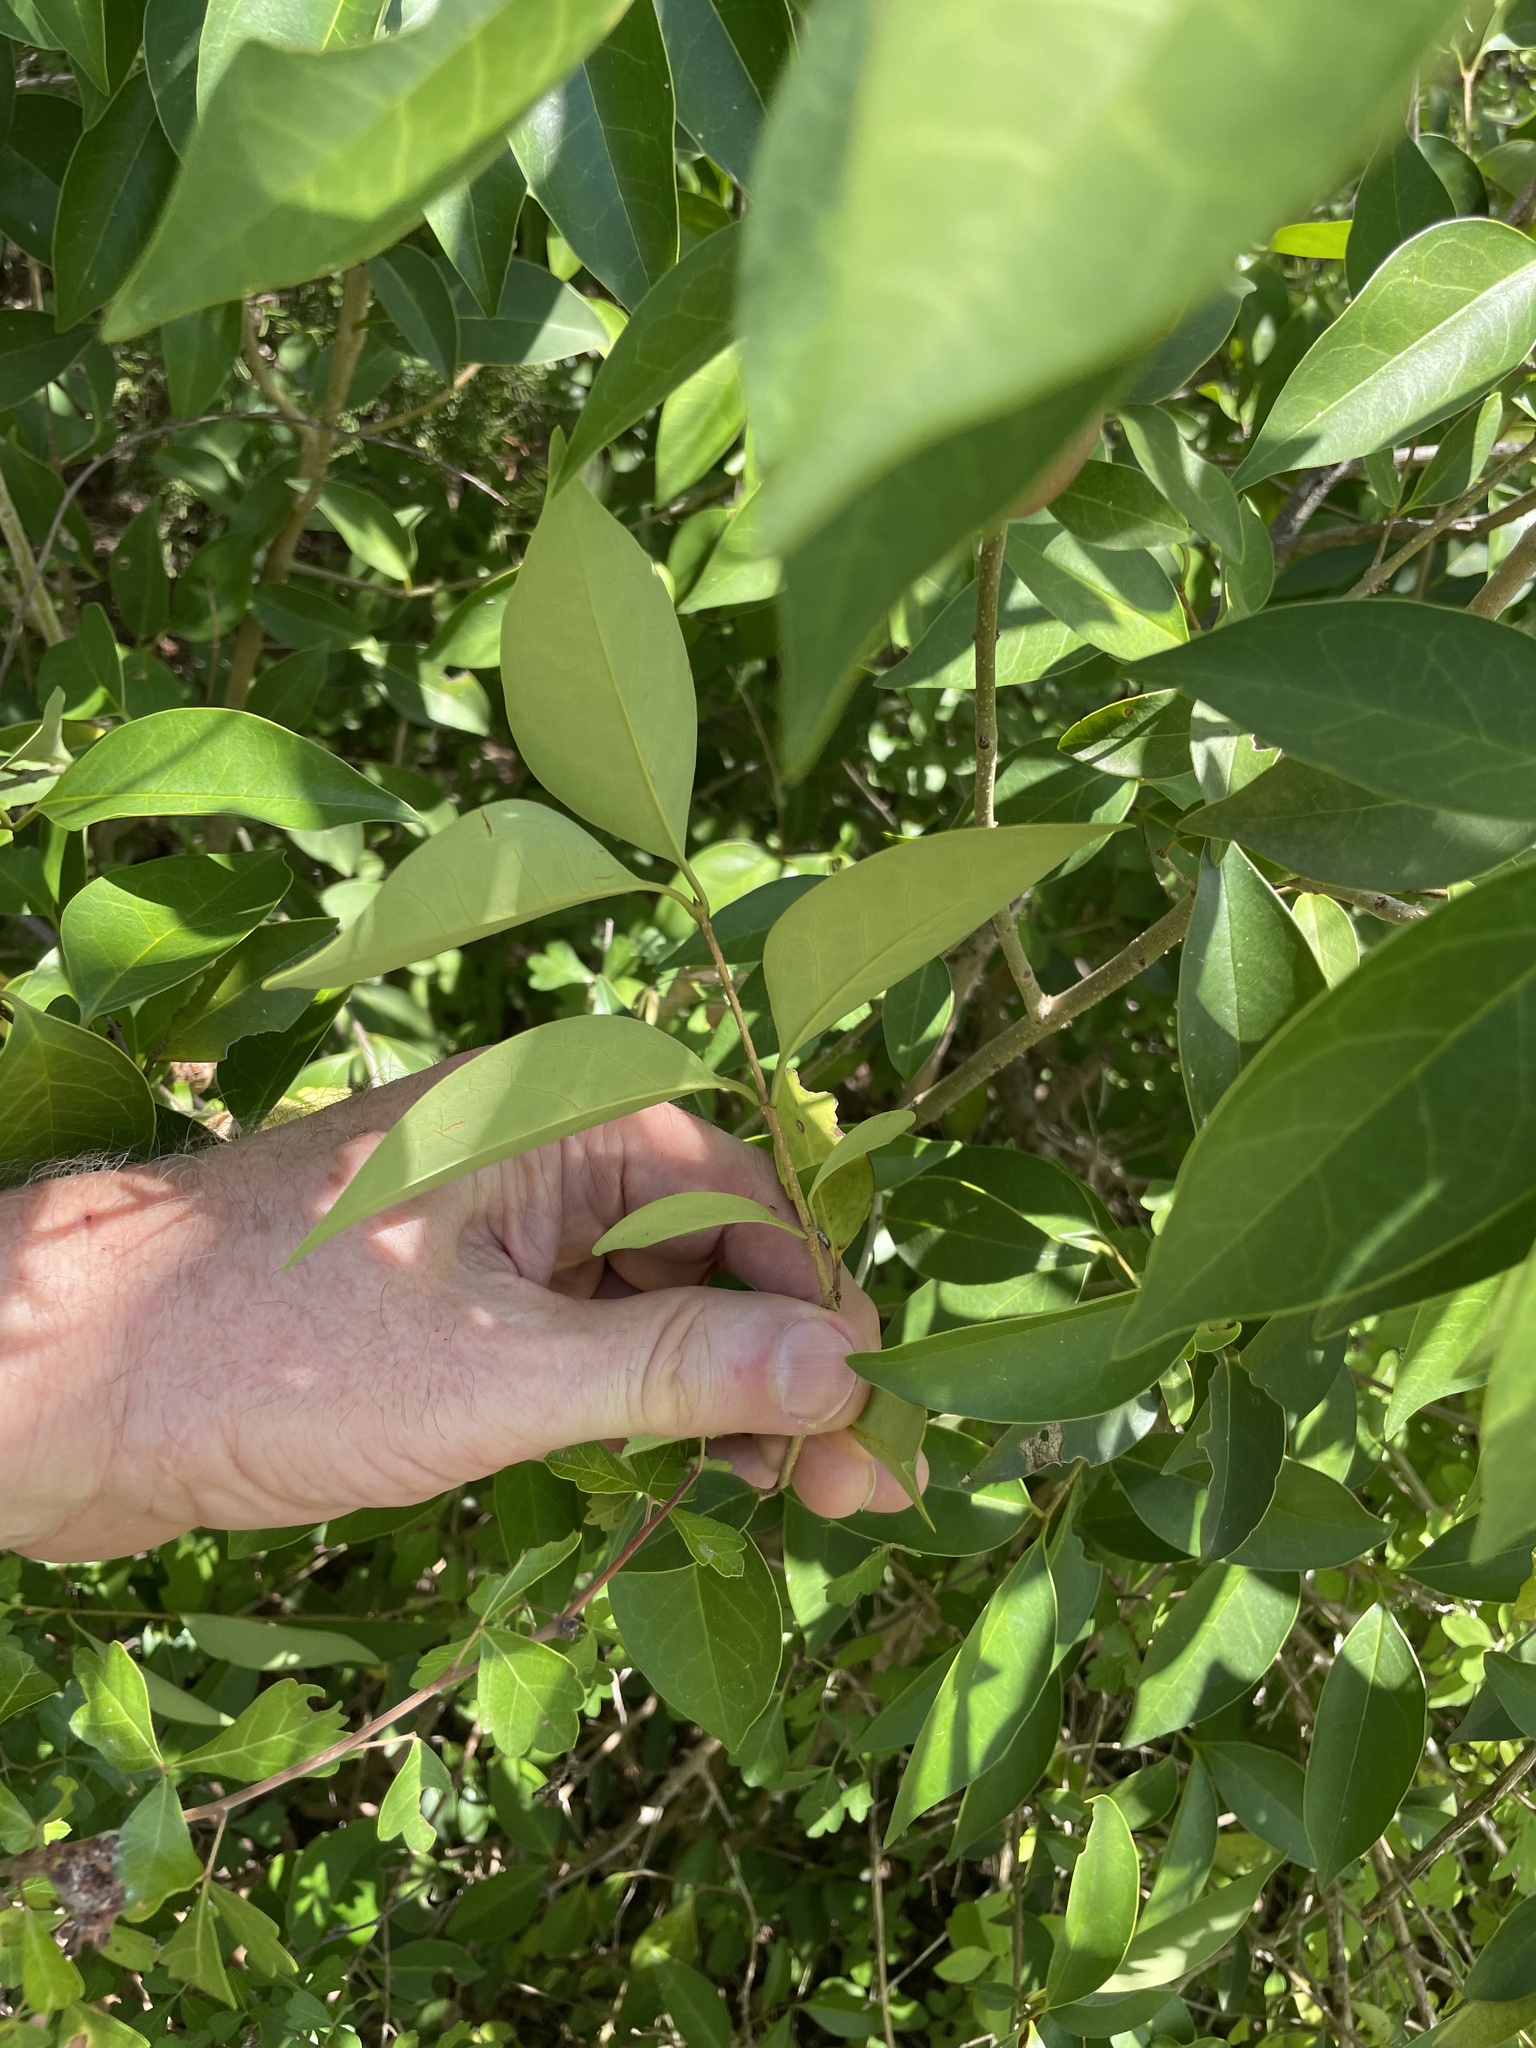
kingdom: Plantae
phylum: Tracheophyta
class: Magnoliopsida
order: Lamiales
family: Oleaceae
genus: Ligustrum
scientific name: Ligustrum lucidum
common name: Glossy privet
